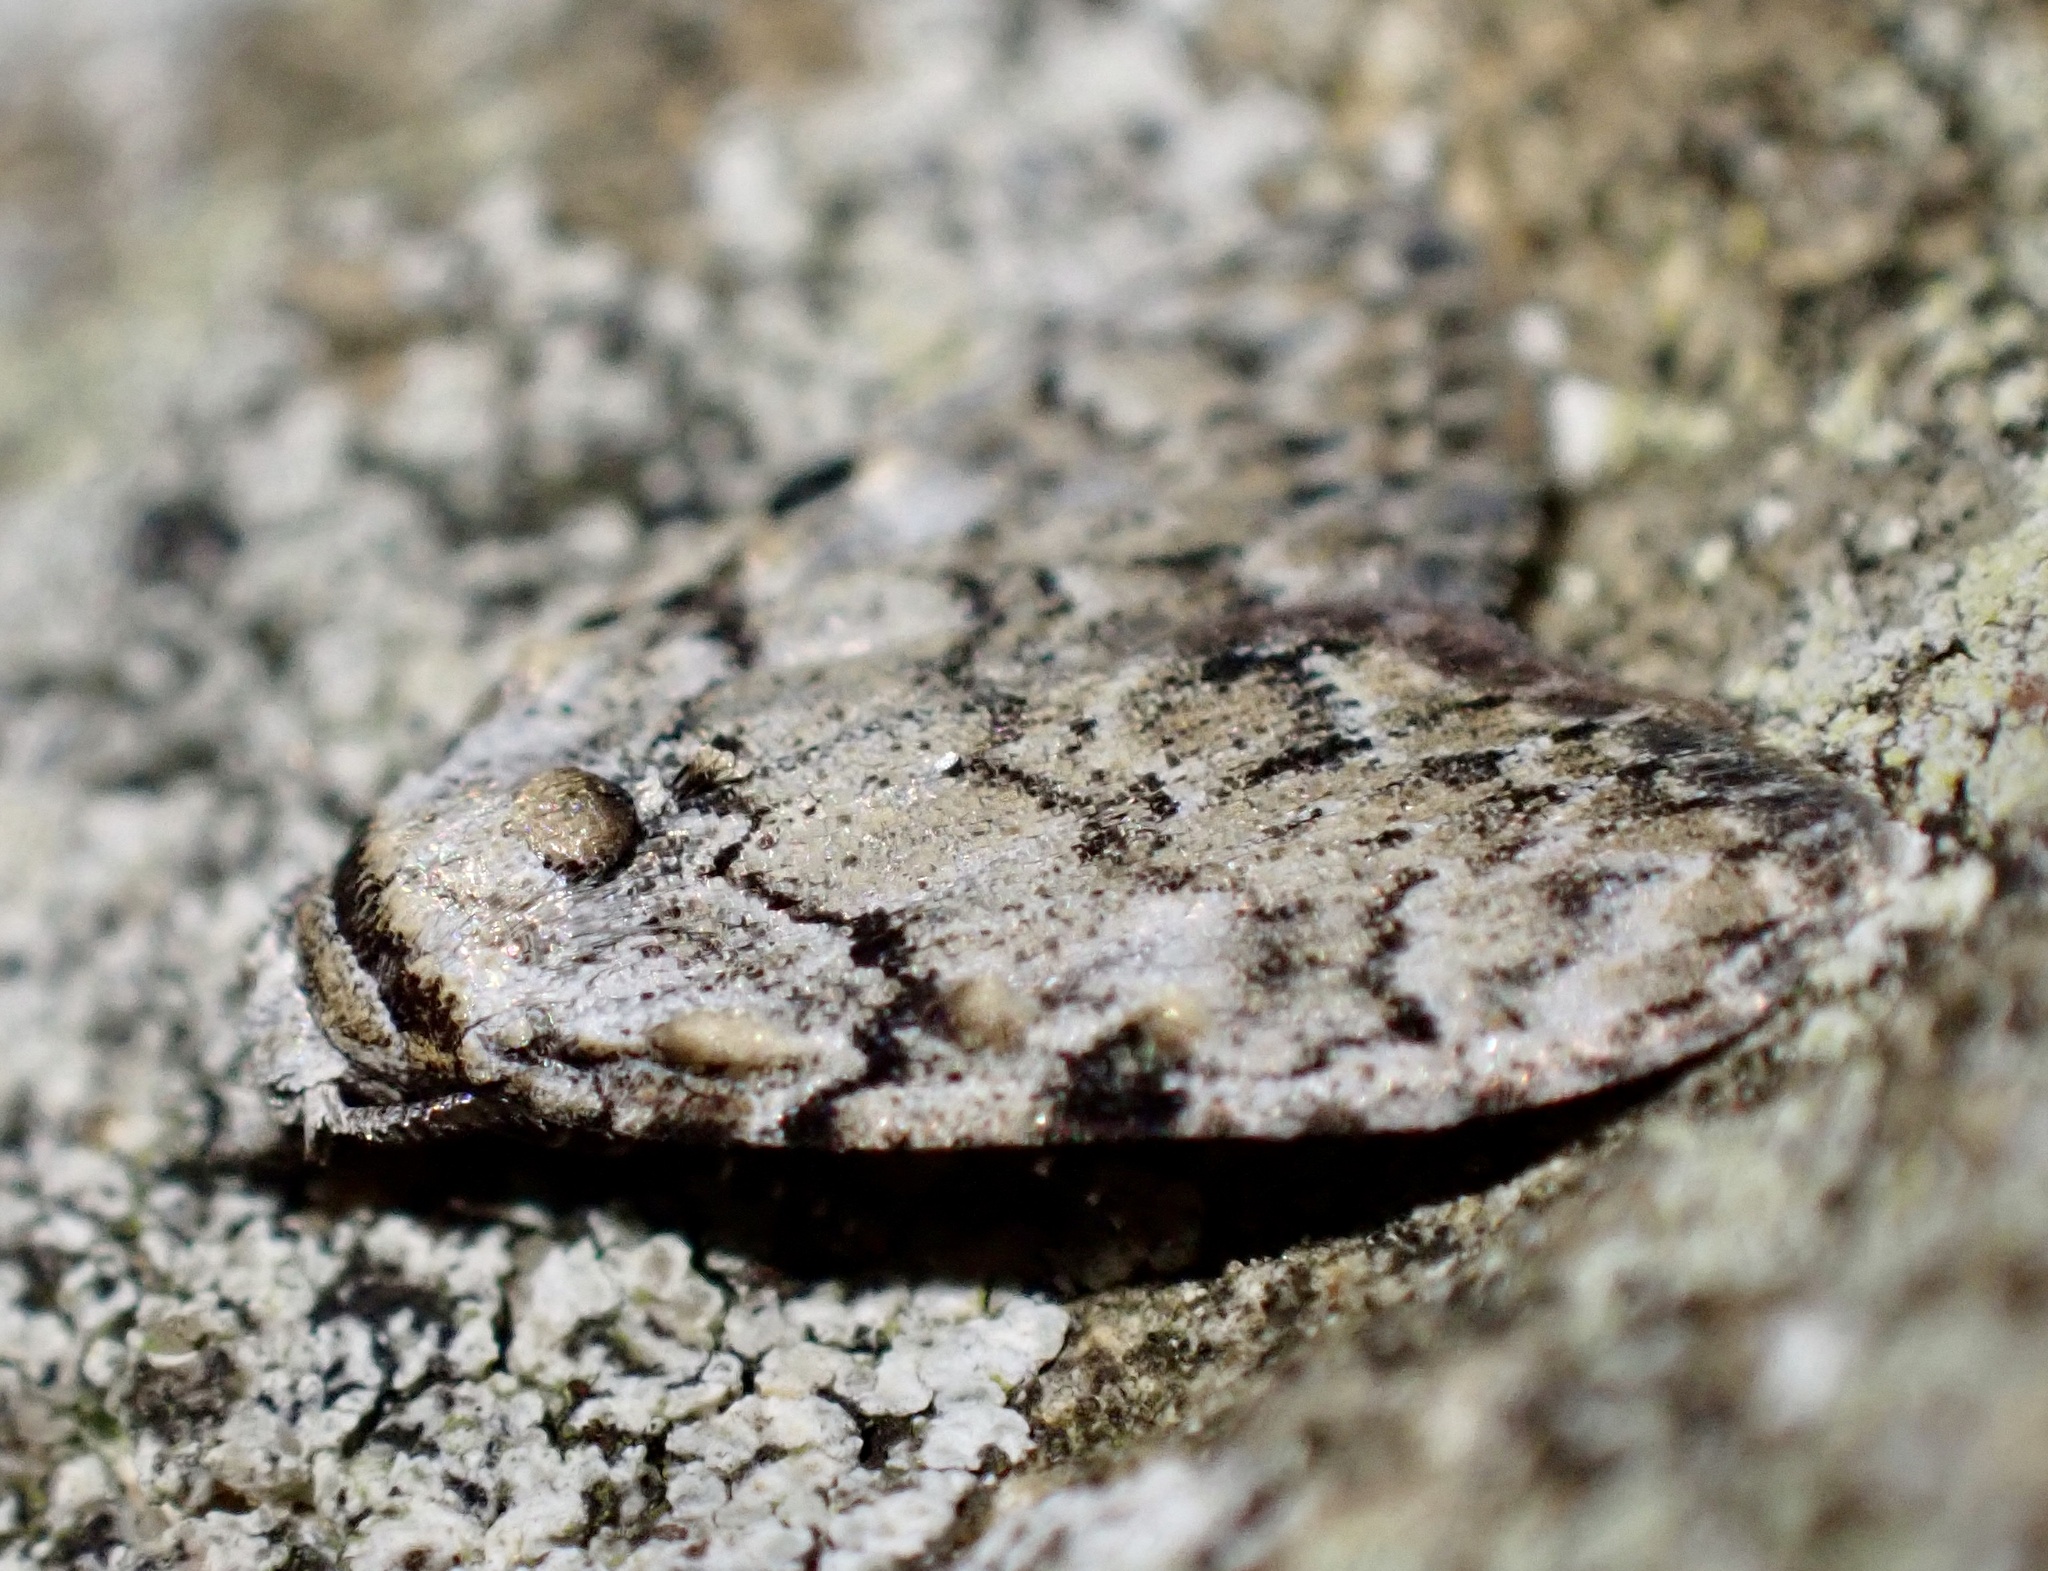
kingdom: Animalia
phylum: Arthropoda
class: Insecta
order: Lepidoptera
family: Nolidae
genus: Meganola
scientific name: Meganola strigula
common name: Small black arches
